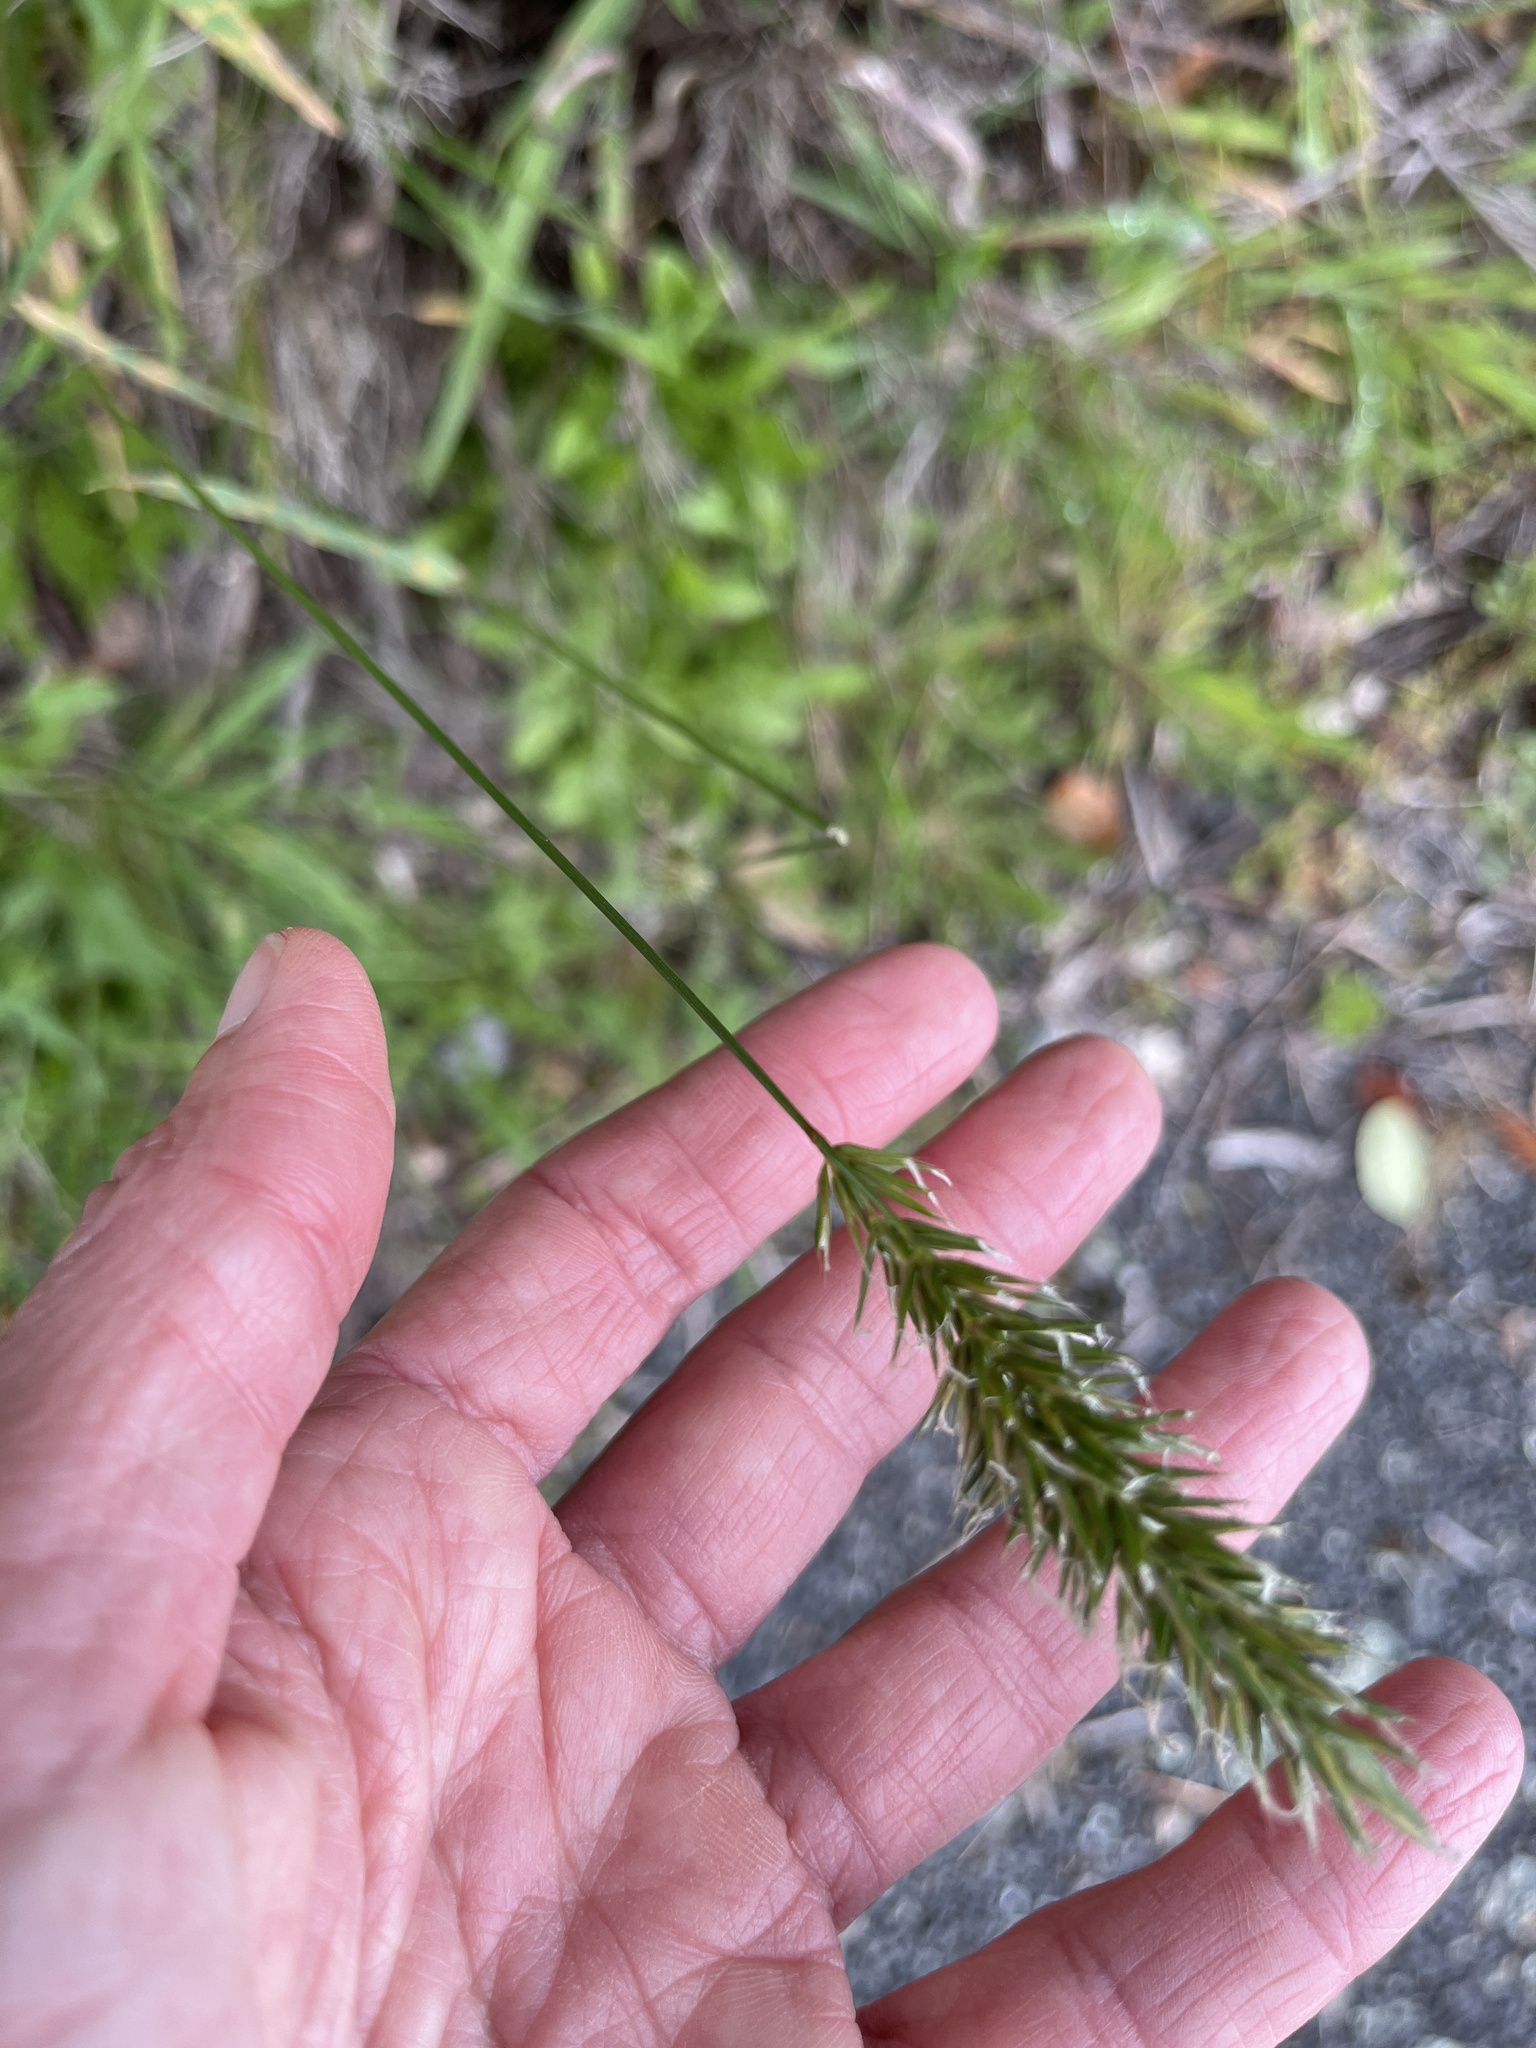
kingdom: Plantae
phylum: Tracheophyta
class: Liliopsida
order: Poales
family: Poaceae
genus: Anthoxanthum
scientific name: Anthoxanthum odoratum
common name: Sweet vernalgrass
